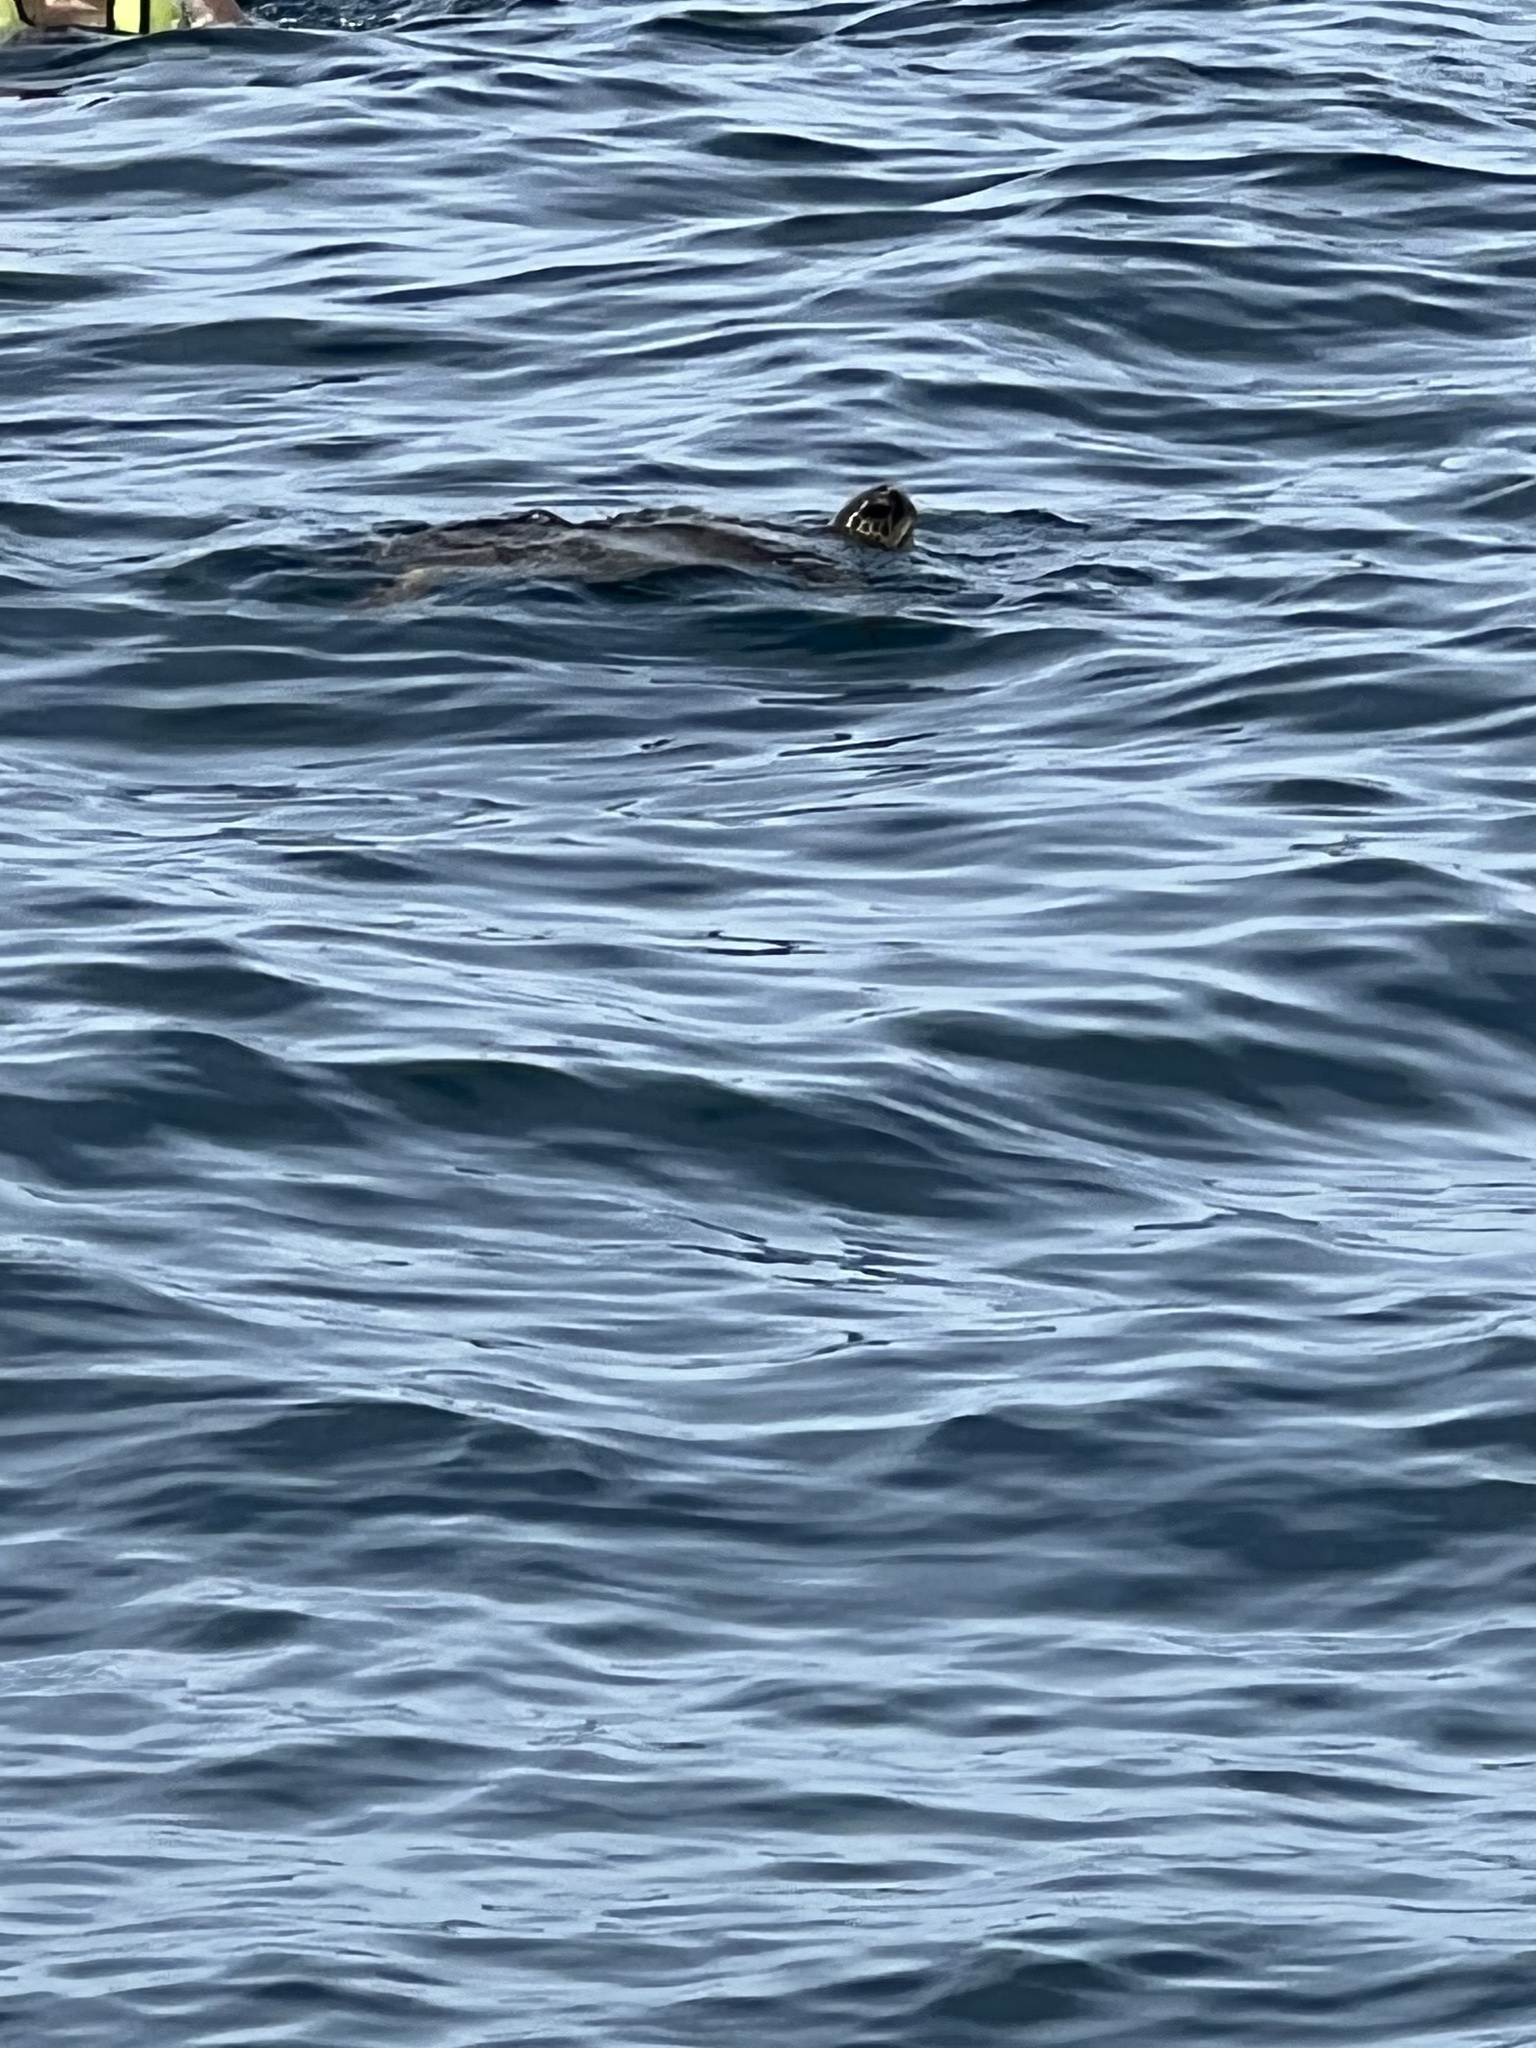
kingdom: Animalia
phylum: Chordata
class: Testudines
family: Cheloniidae
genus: Chelonia
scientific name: Chelonia mydas
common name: Green turtle
